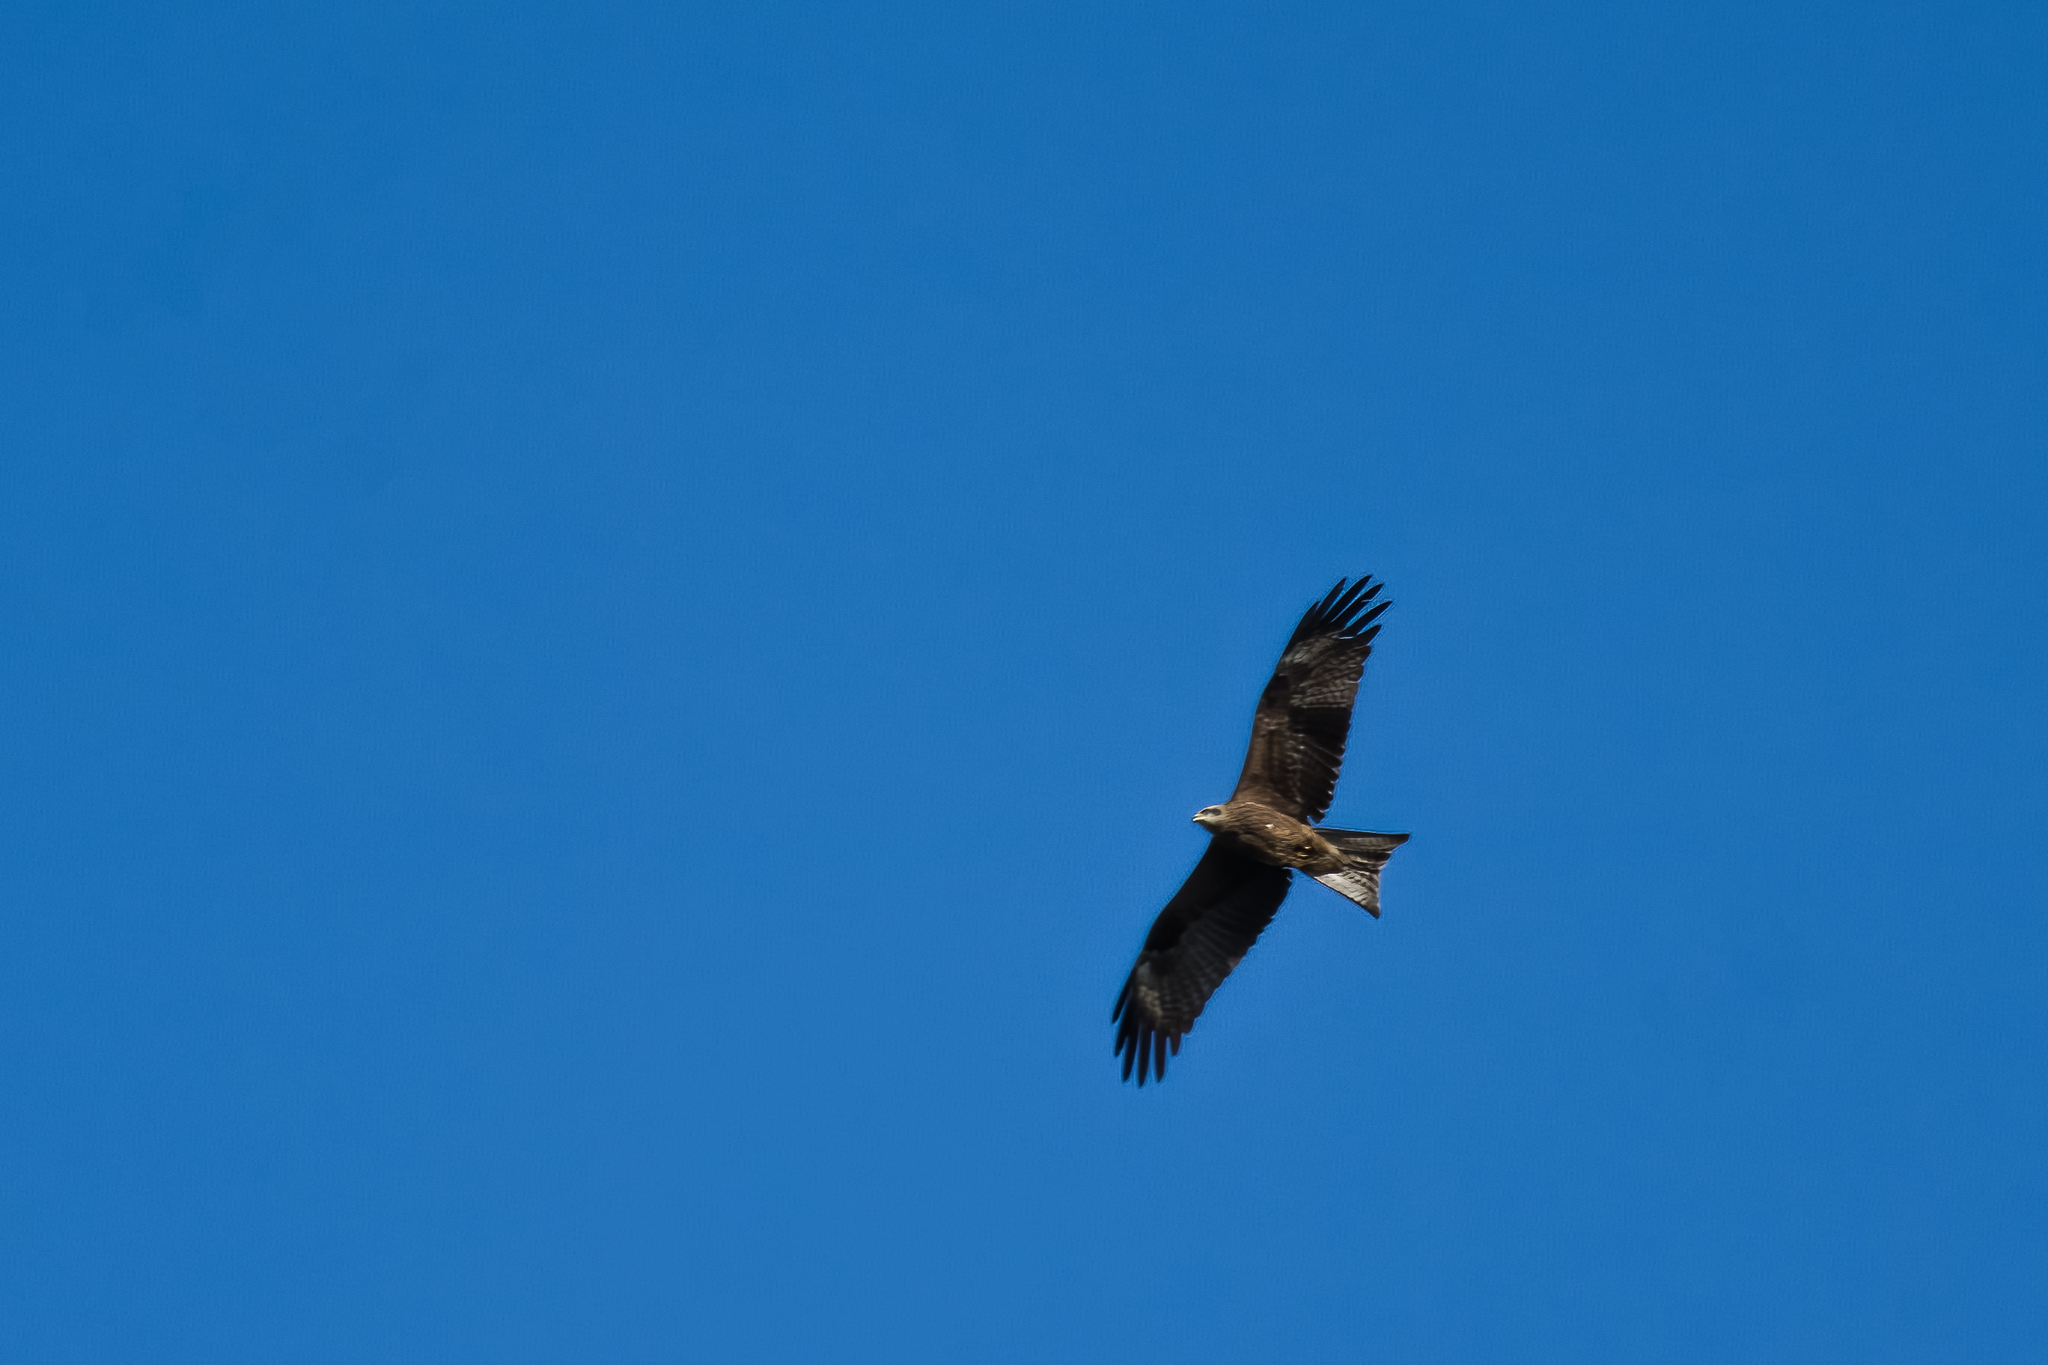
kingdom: Animalia
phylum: Chordata
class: Aves
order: Accipitriformes
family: Accipitridae
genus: Milvus
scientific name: Milvus migrans
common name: Black kite
